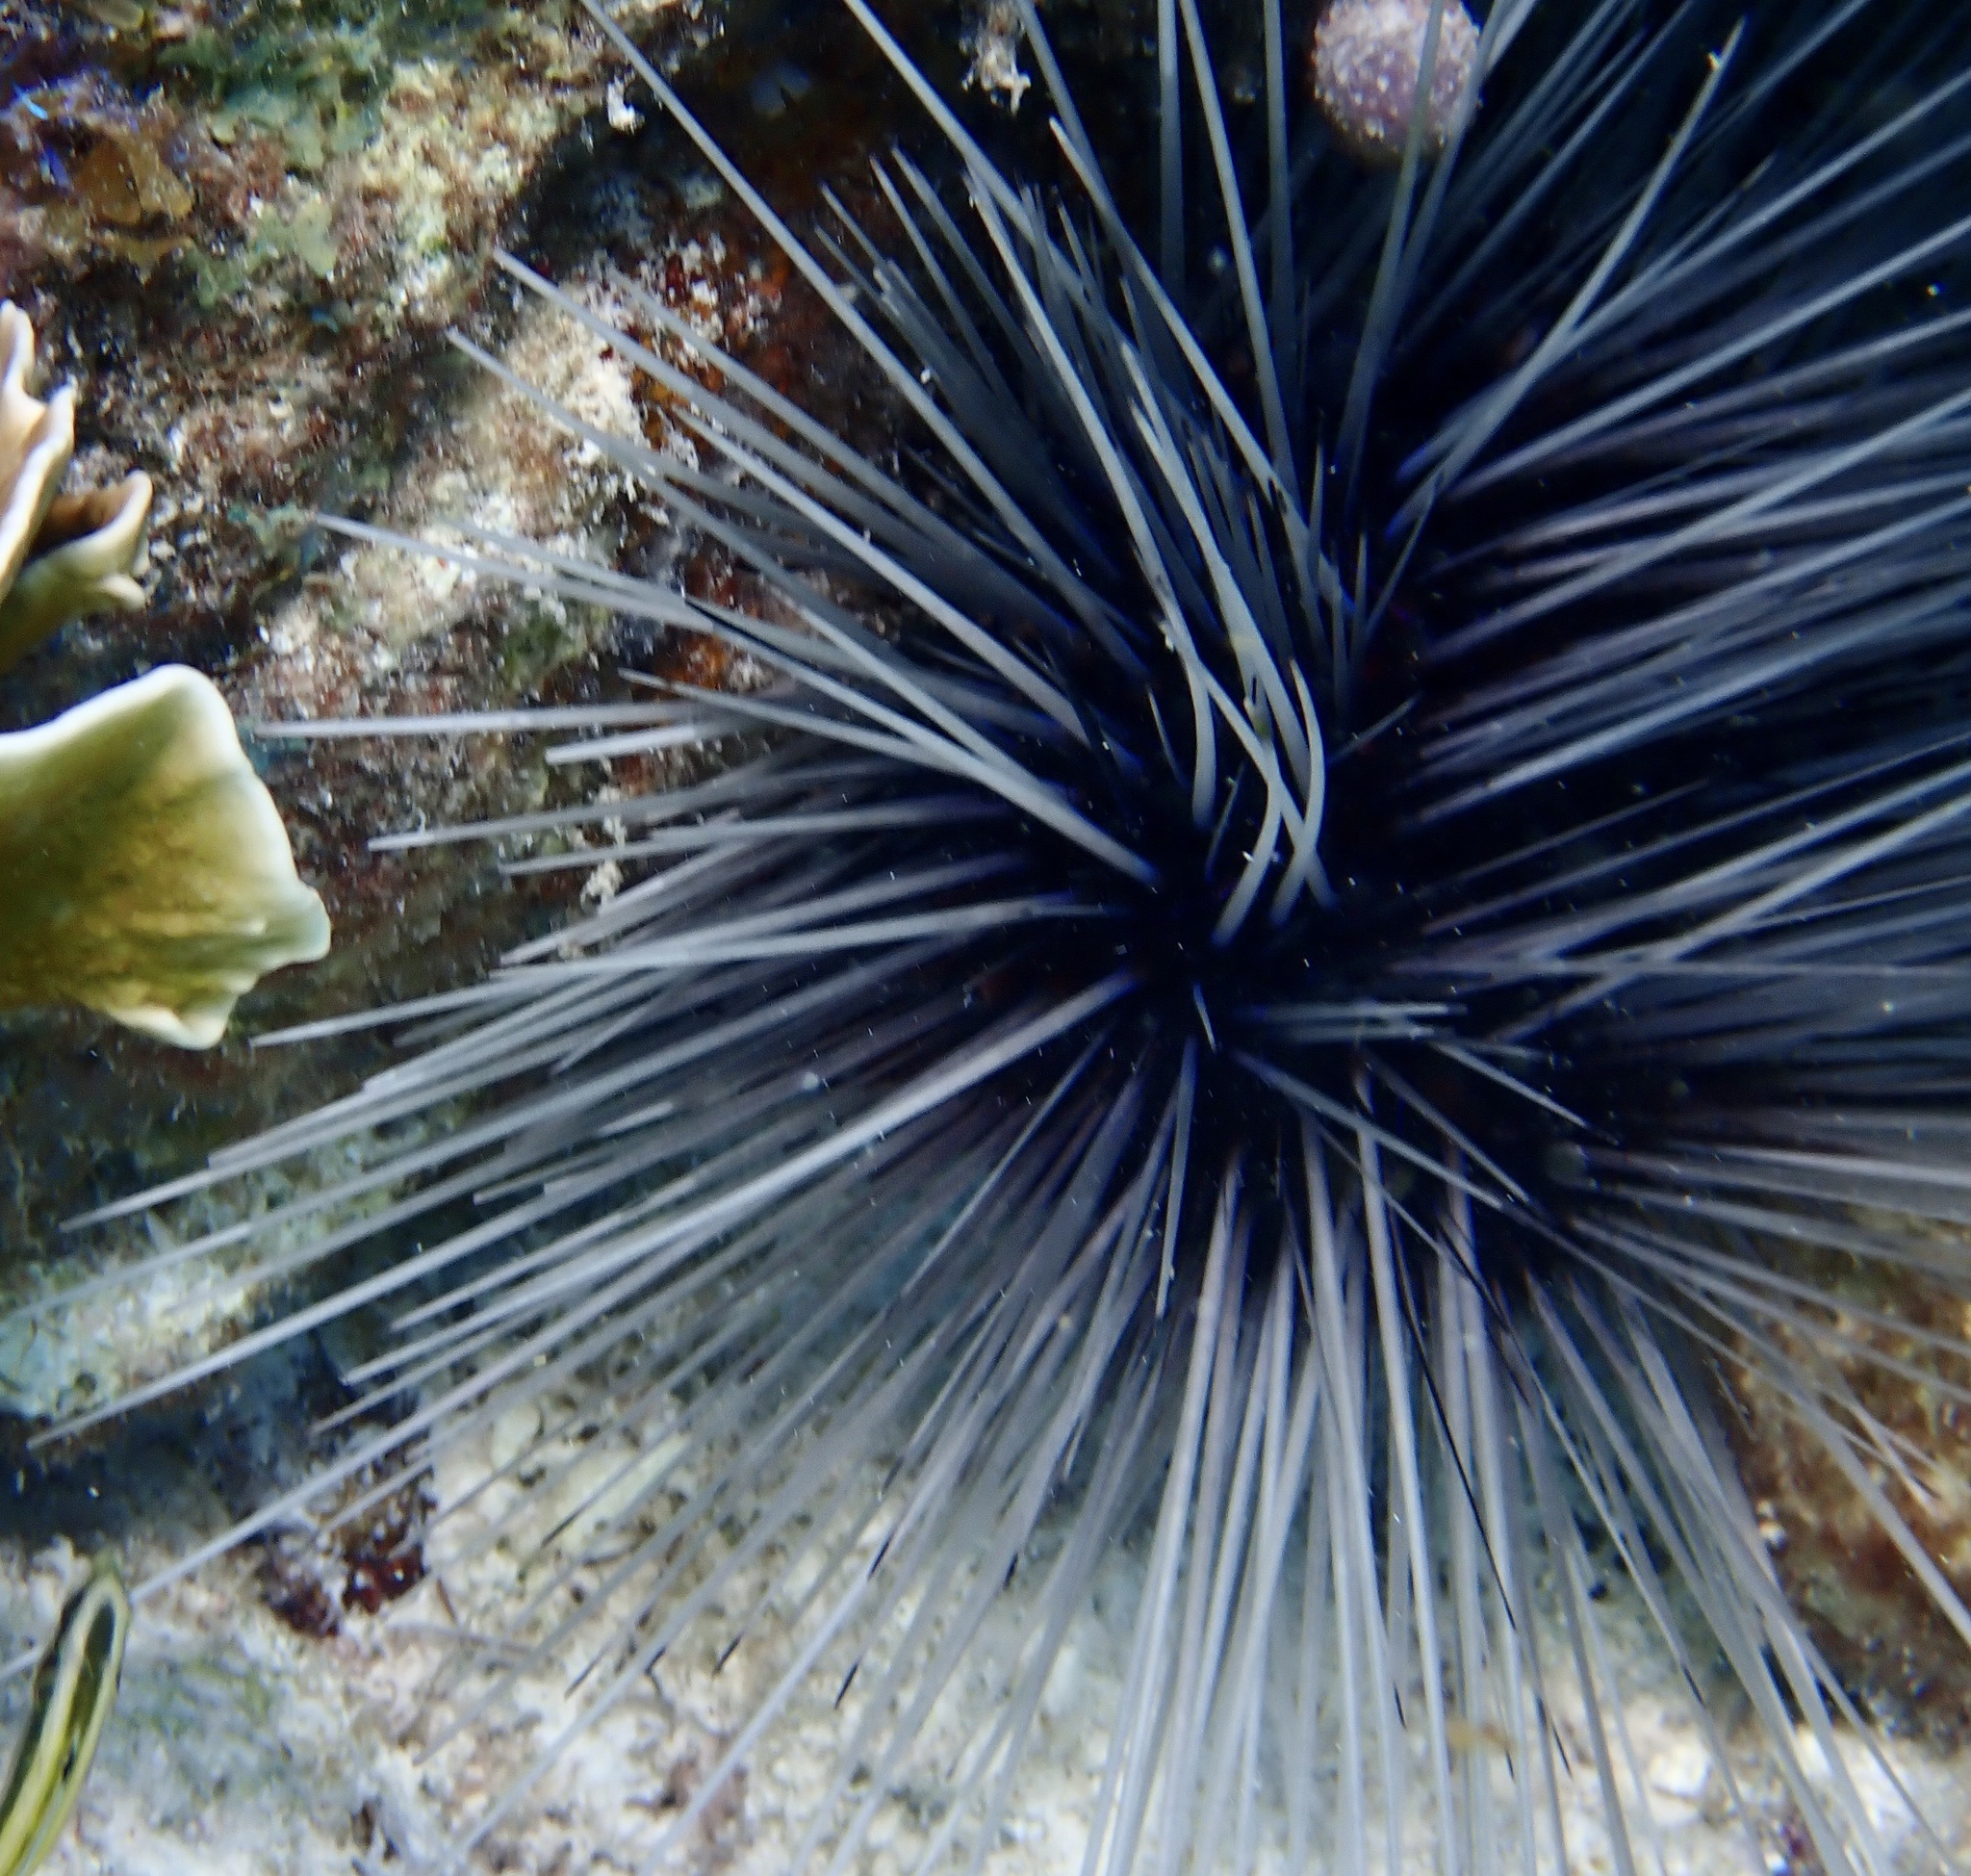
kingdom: Animalia
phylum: Echinodermata
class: Echinoidea
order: Diadematoida
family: Diadematidae
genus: Diadema
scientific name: Diadema antillarum
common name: Spiny urchin
